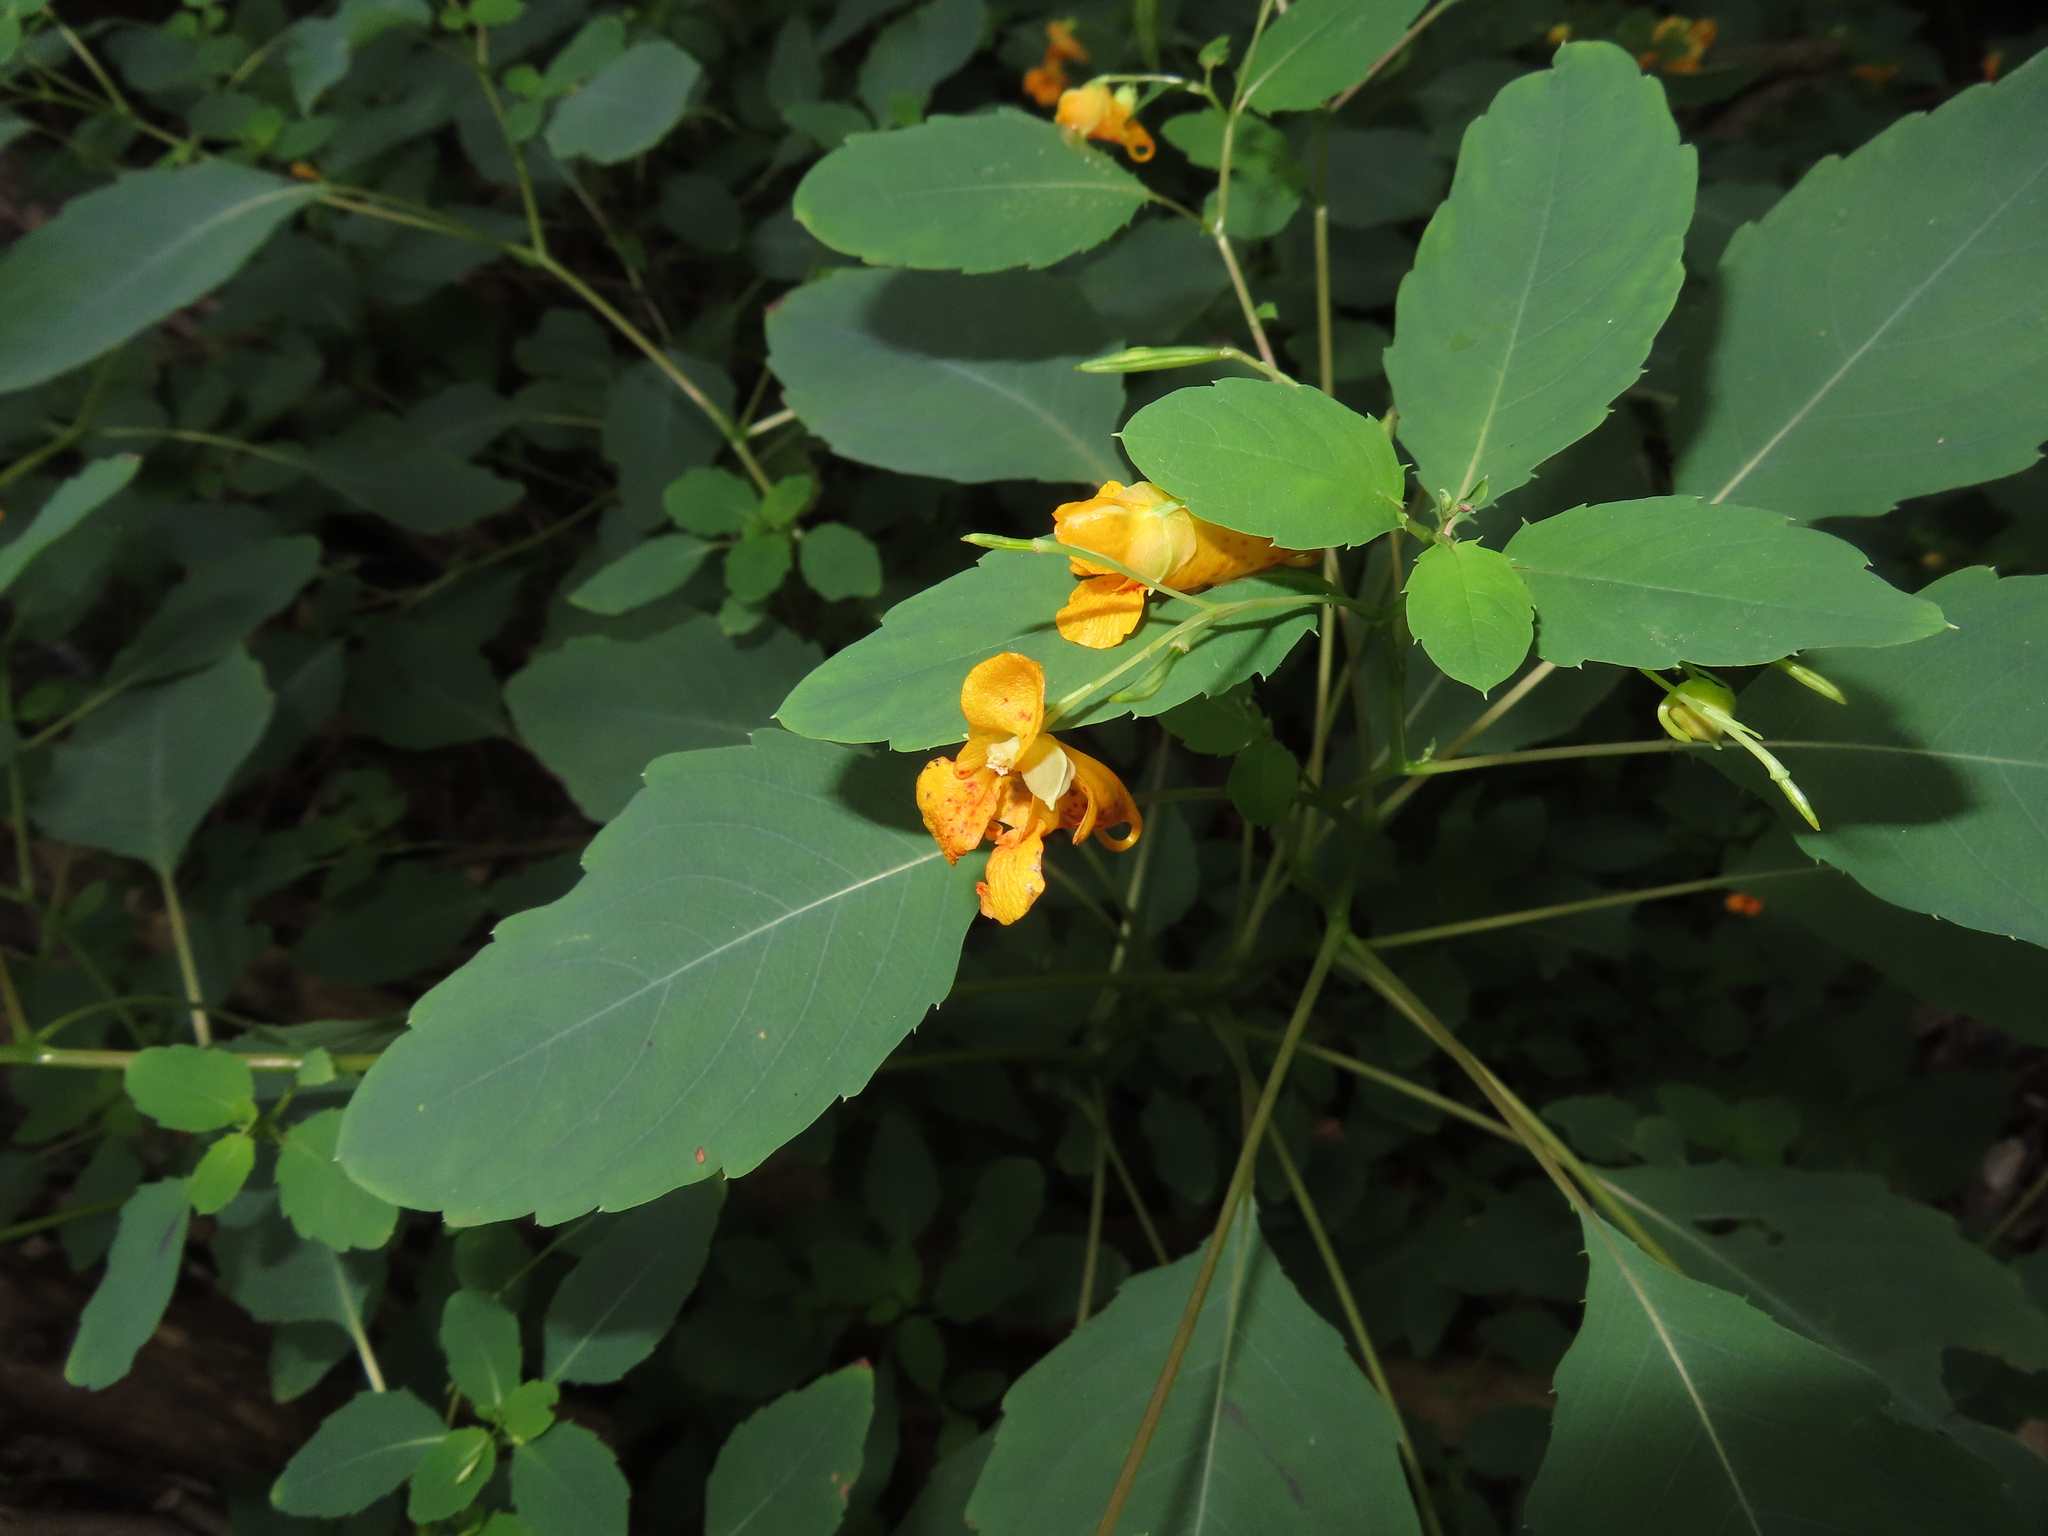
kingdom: Plantae
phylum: Tracheophyta
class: Magnoliopsida
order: Ericales
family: Balsaminaceae
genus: Impatiens
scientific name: Impatiens capensis
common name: Orange balsam
